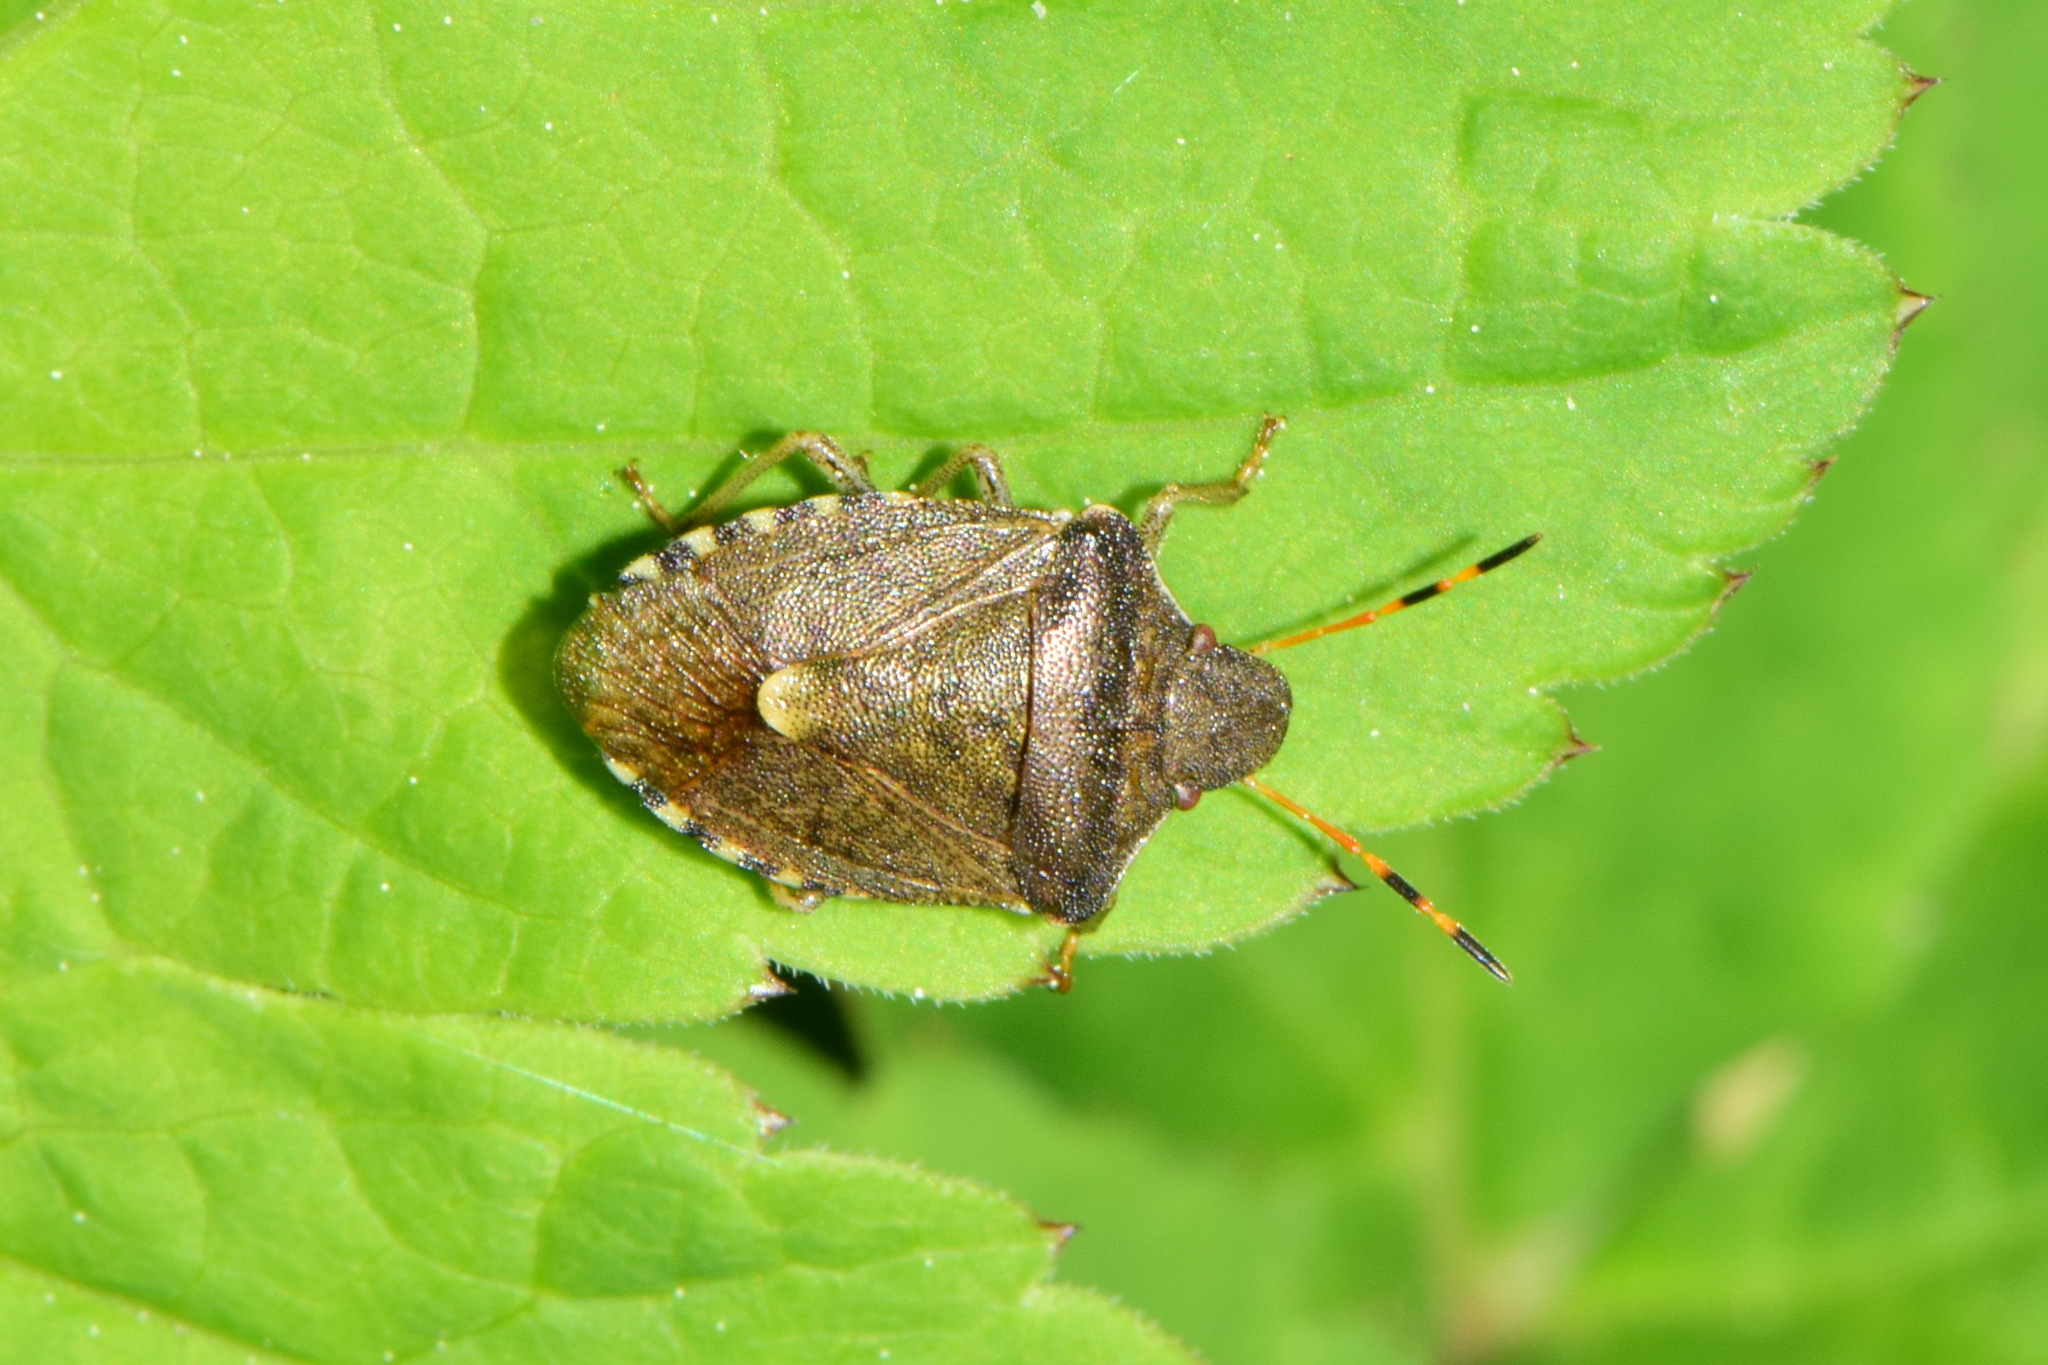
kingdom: Animalia
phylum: Arthropoda
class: Insecta
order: Hemiptera
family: Pentatomidae
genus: Holcostethus
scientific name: Holcostethus strictus
